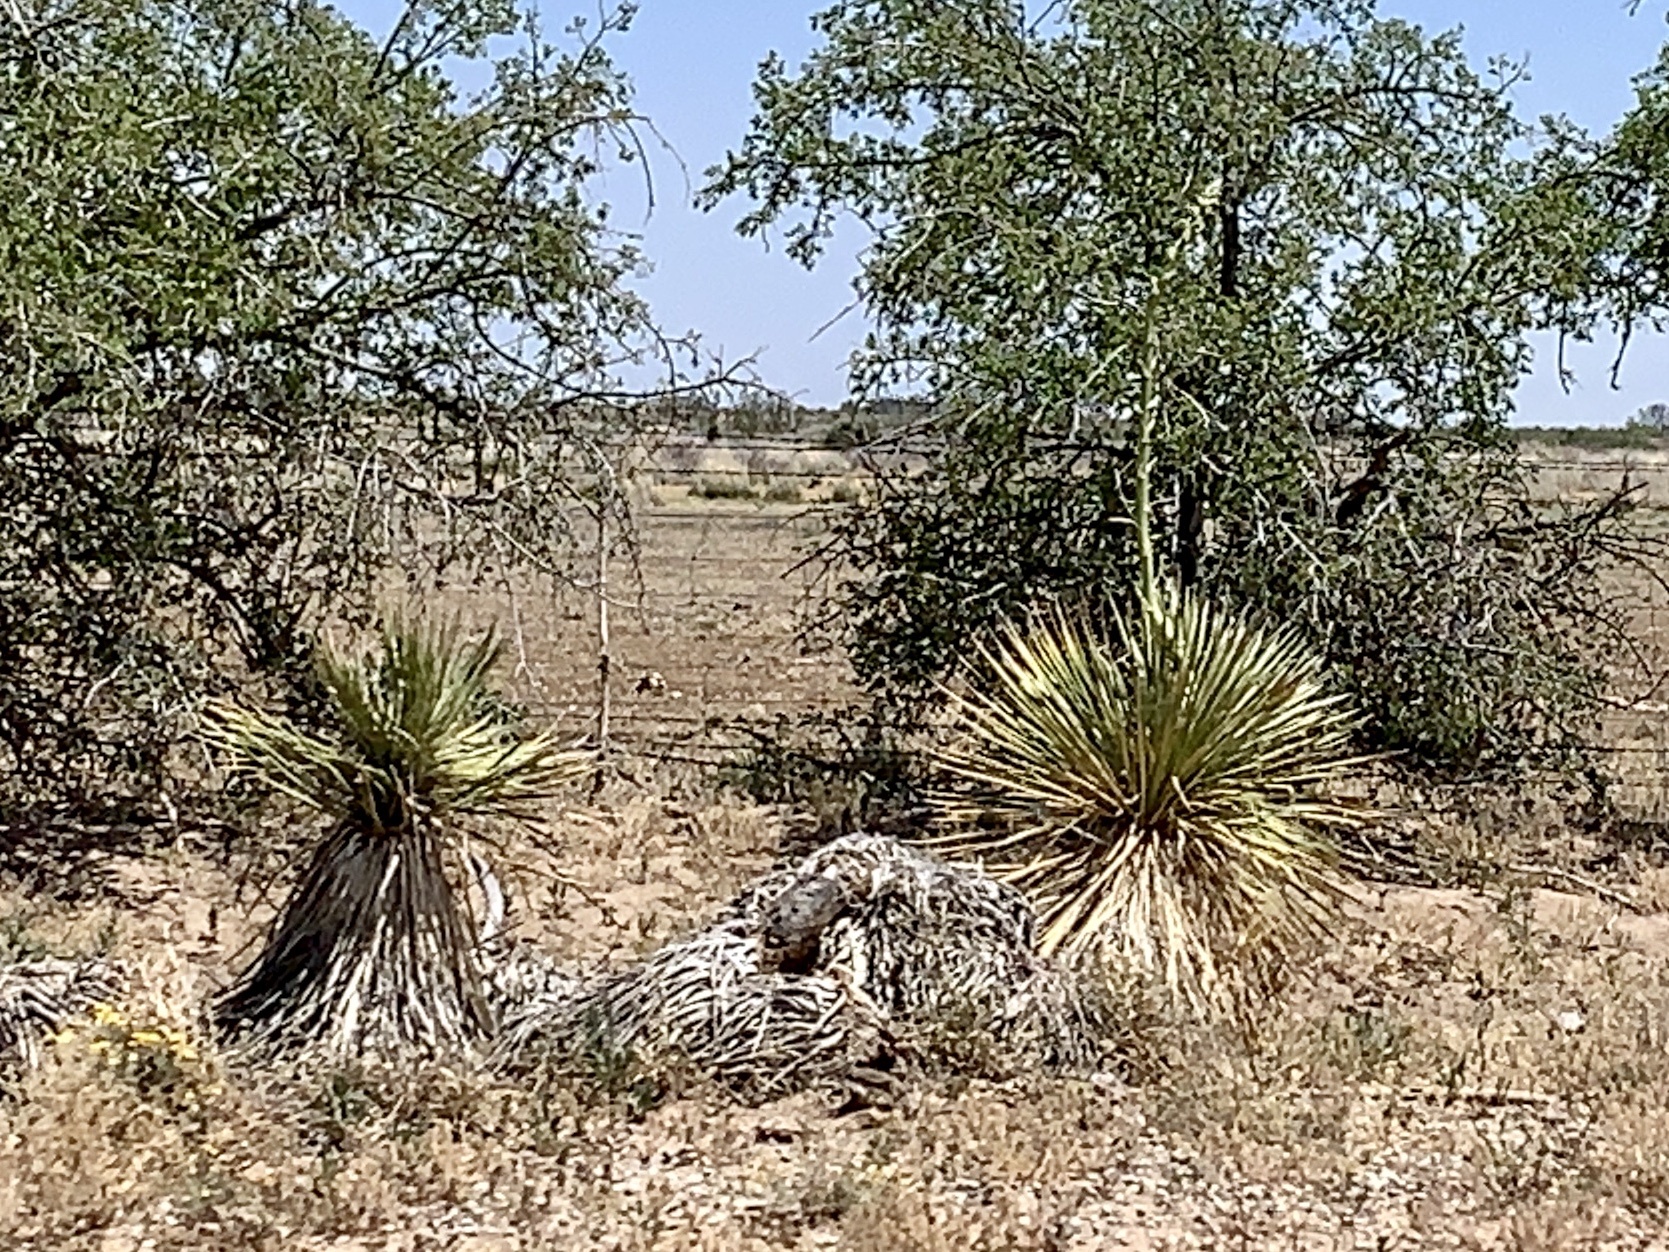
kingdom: Plantae
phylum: Tracheophyta
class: Liliopsida
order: Asparagales
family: Asparagaceae
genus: Yucca
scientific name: Yucca elata
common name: Palmella
